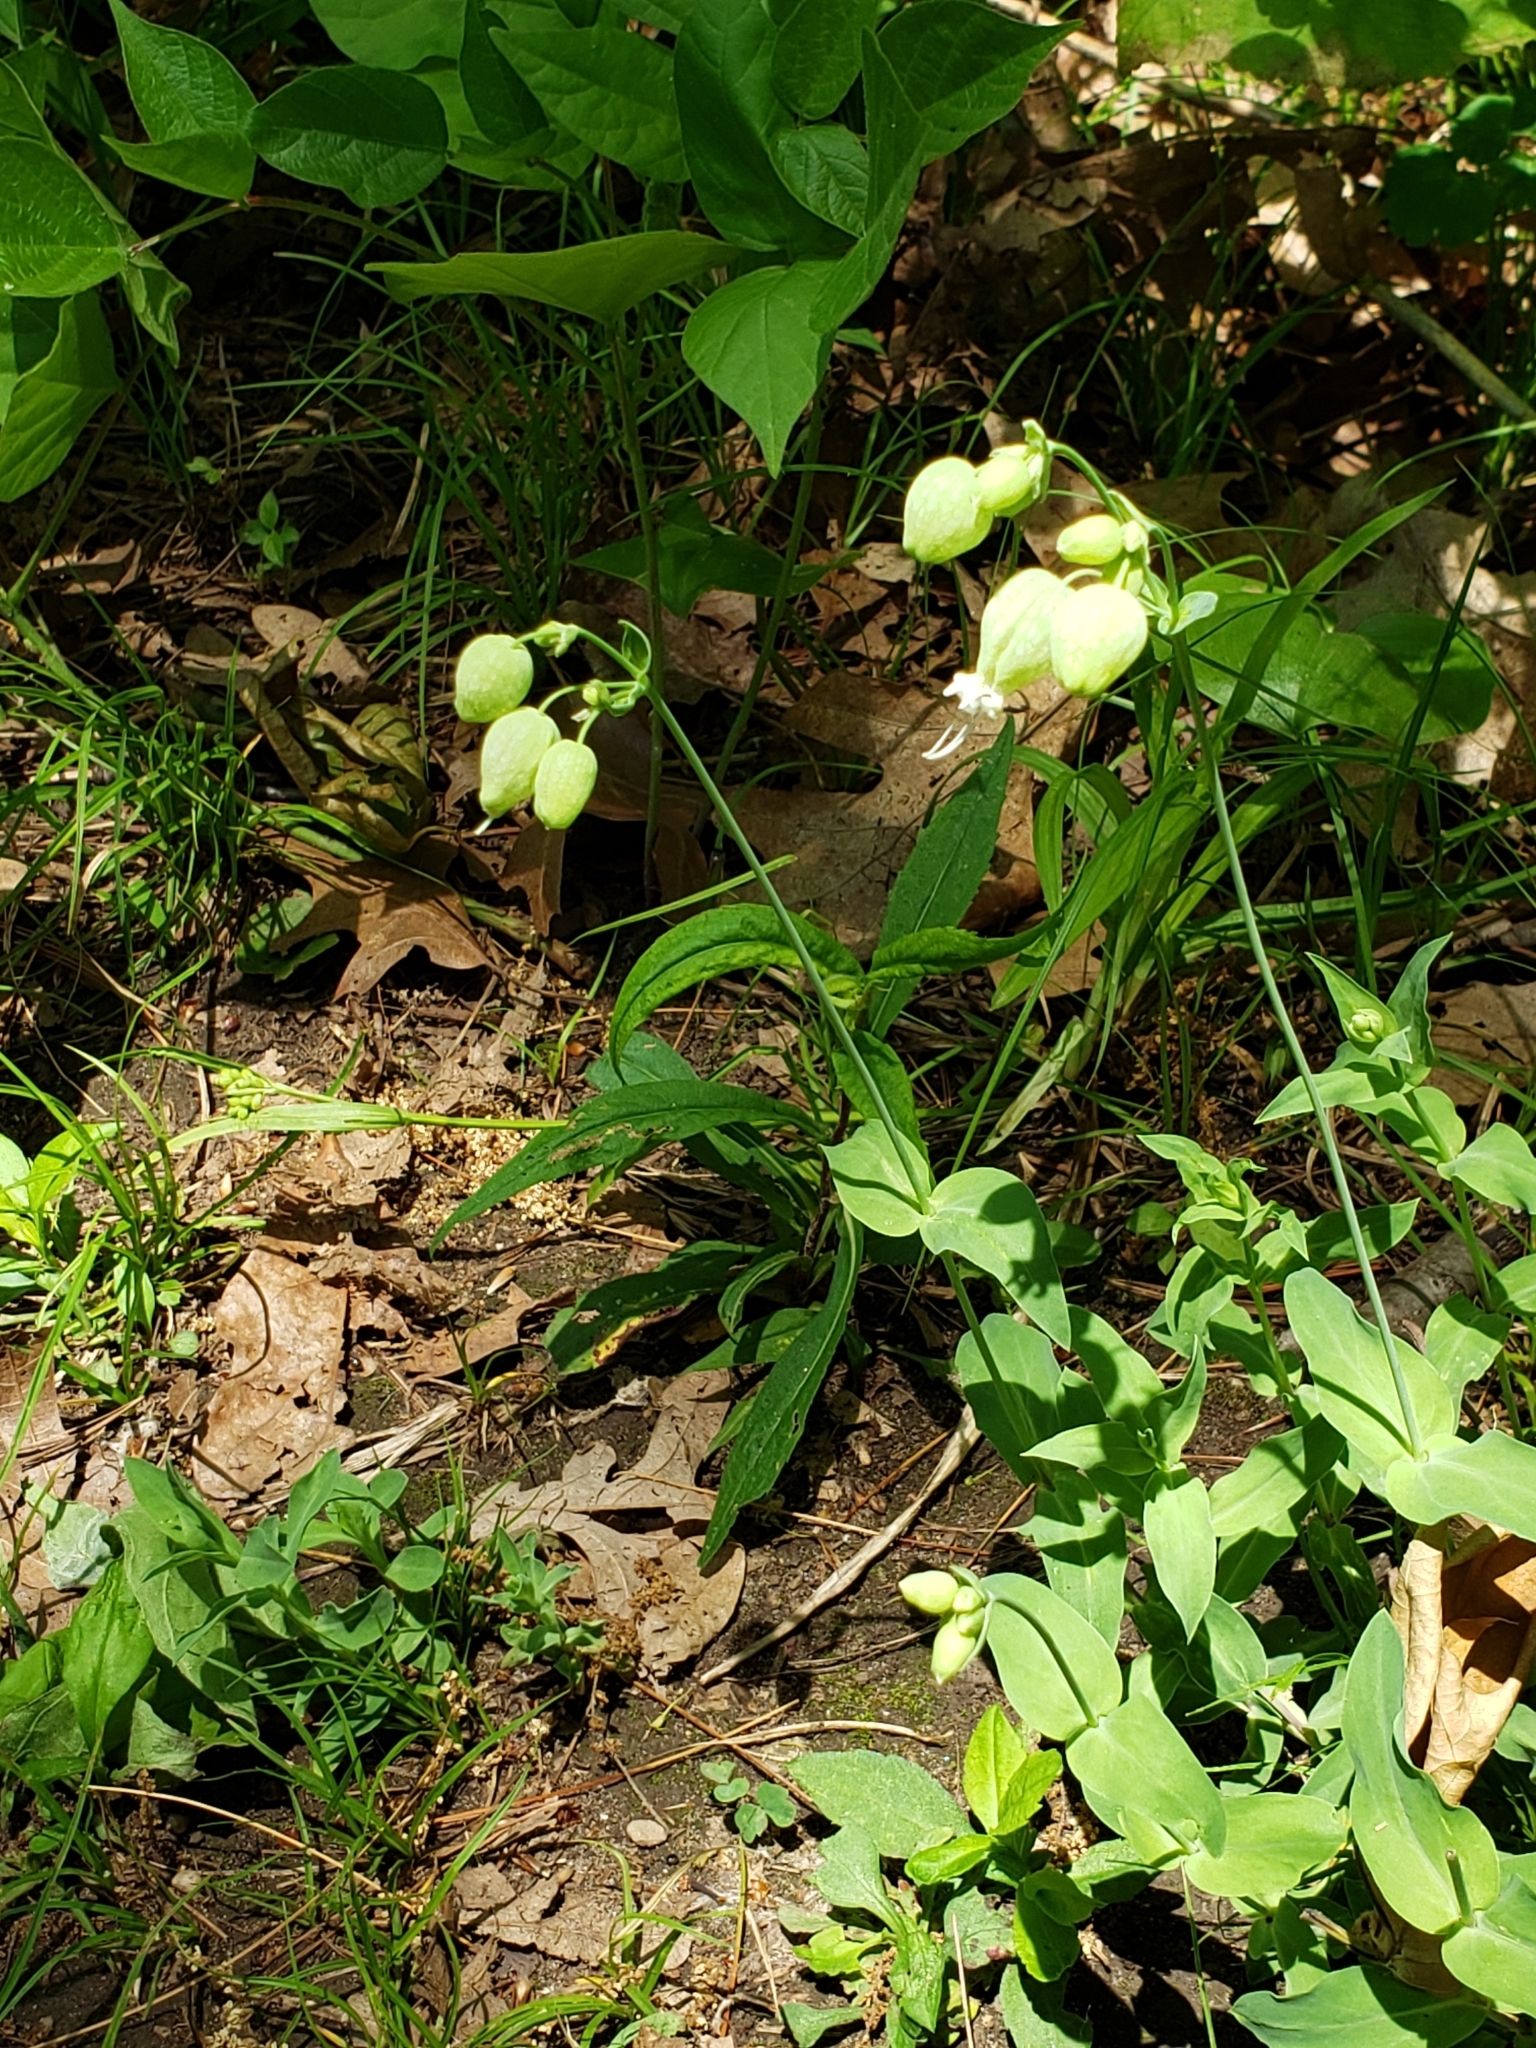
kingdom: Plantae
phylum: Tracheophyta
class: Magnoliopsida
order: Caryophyllales
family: Caryophyllaceae
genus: Silene
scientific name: Silene vulgaris
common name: Bladder campion
